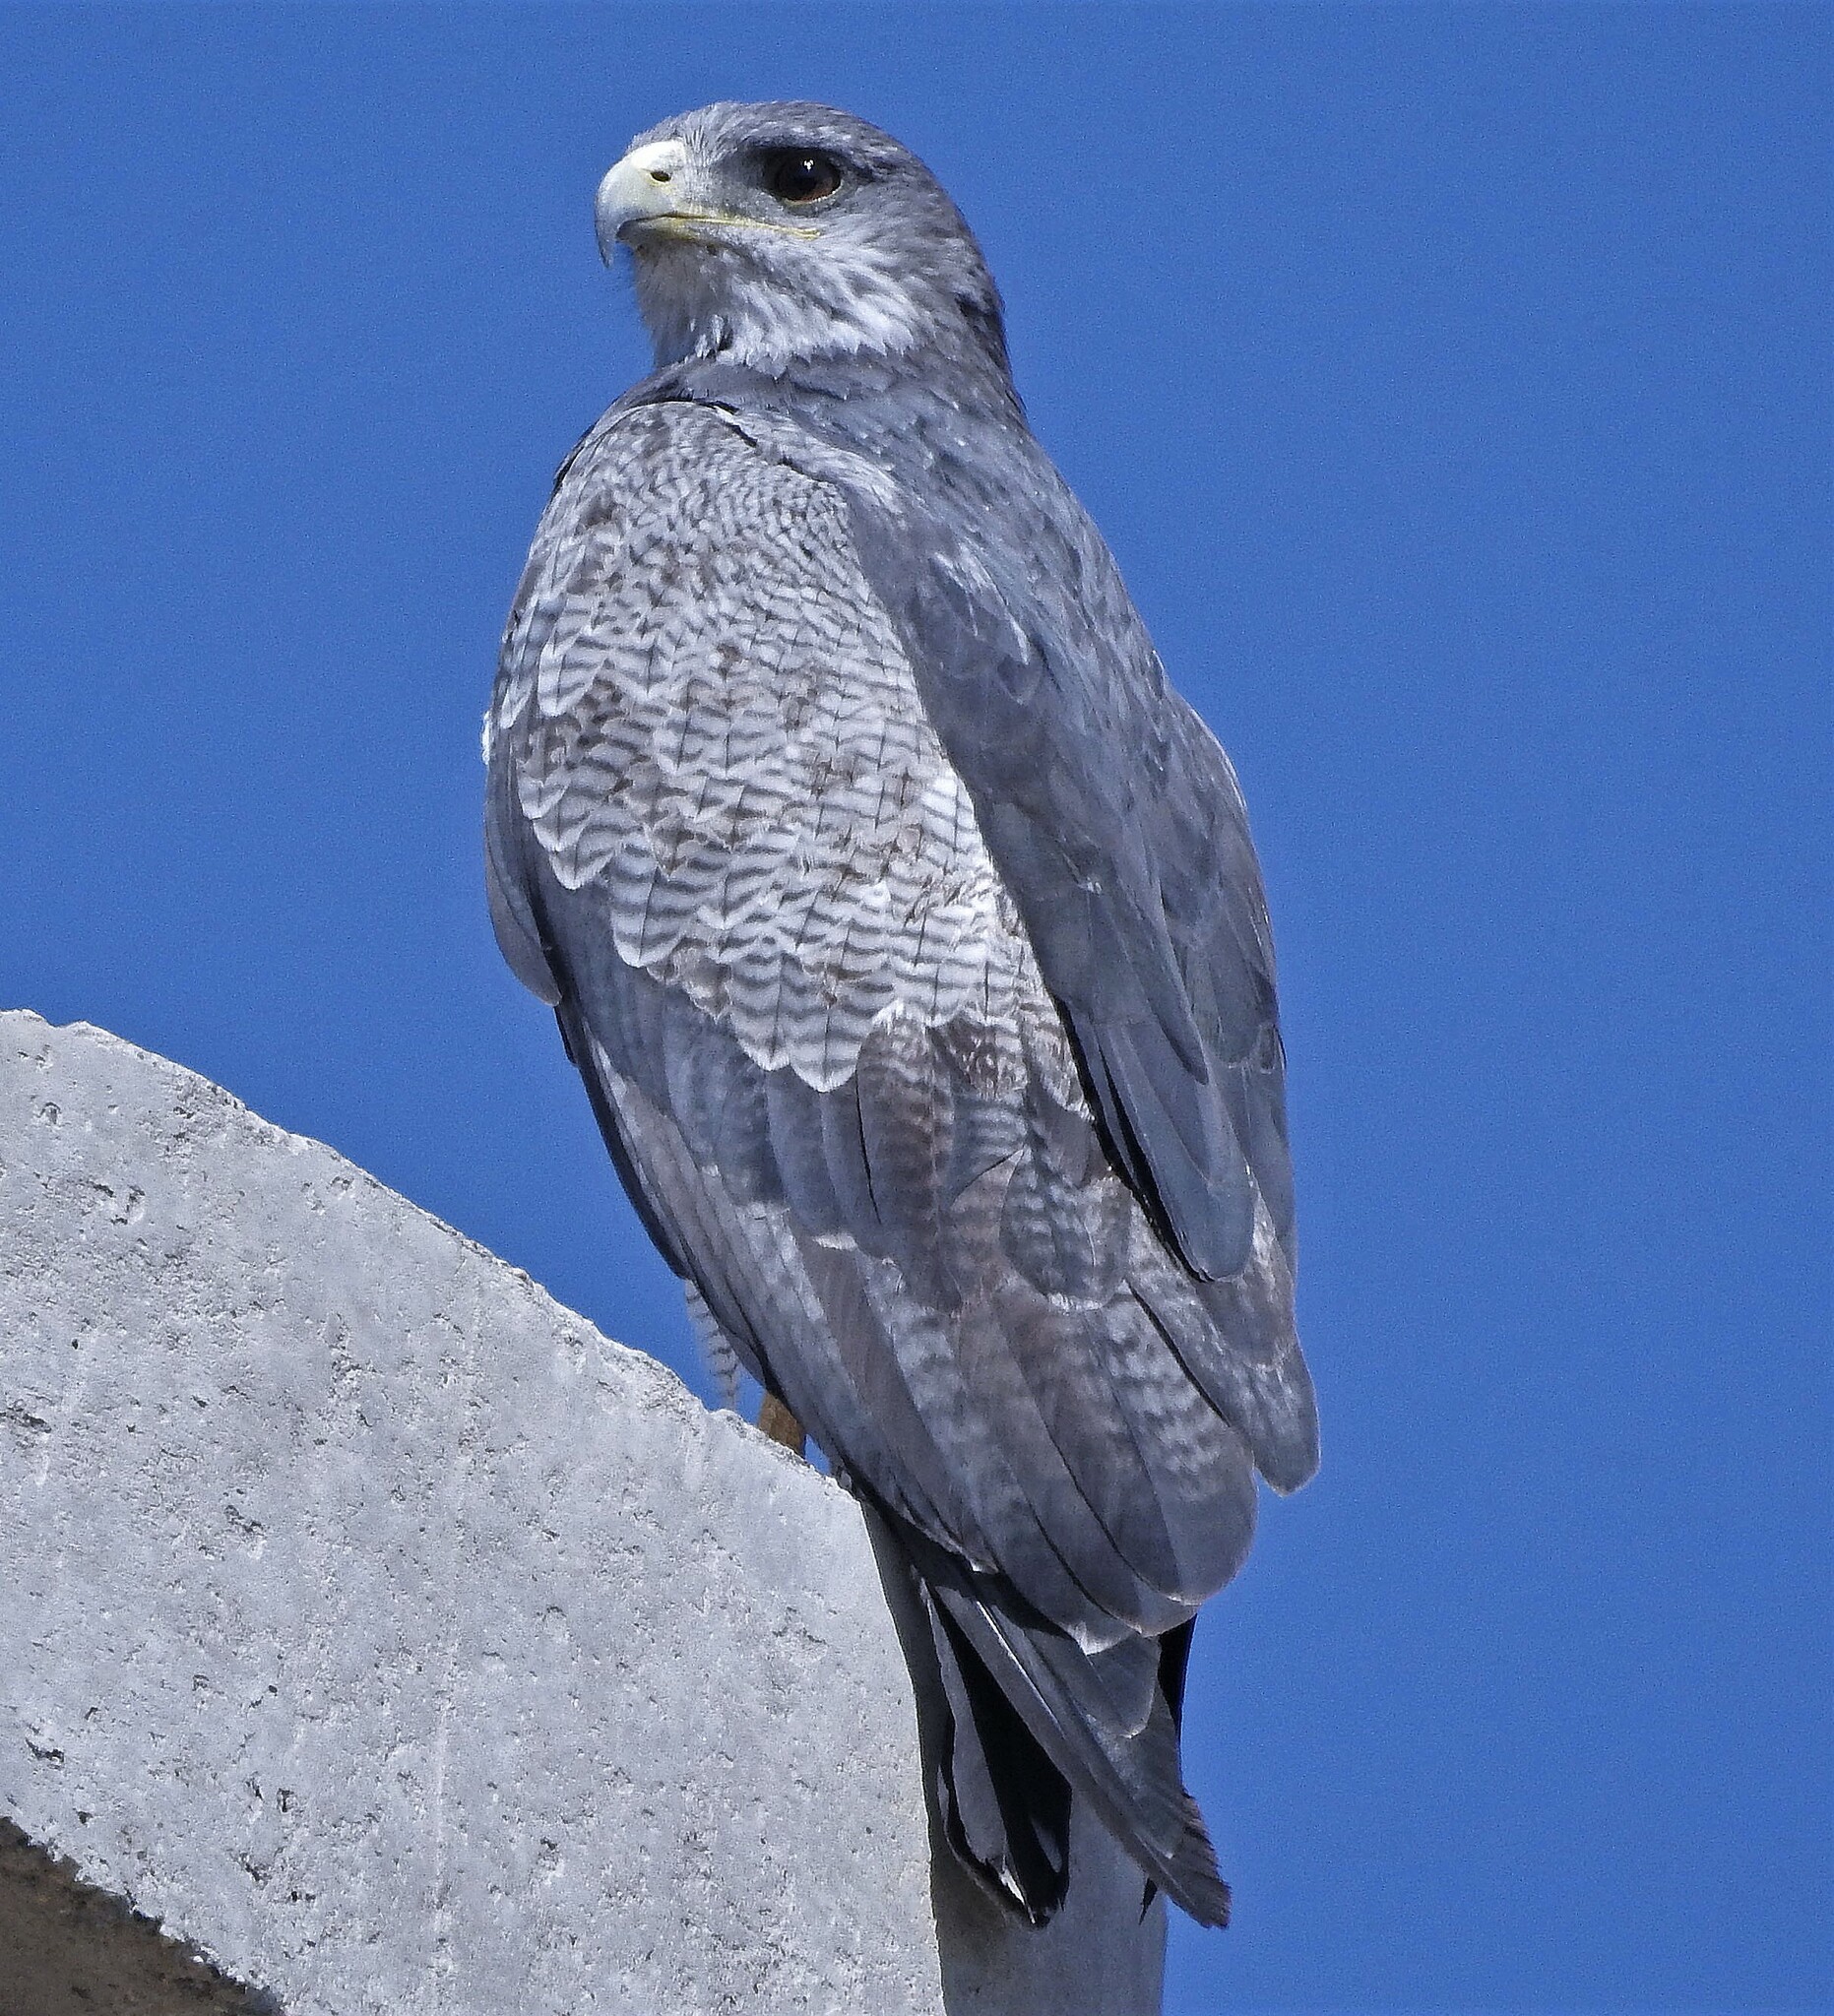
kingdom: Animalia
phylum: Chordata
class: Aves
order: Accipitriformes
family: Accipitridae
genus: Geranoaetus
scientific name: Geranoaetus melanoleucus
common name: Black-chested buzzard-eagle
